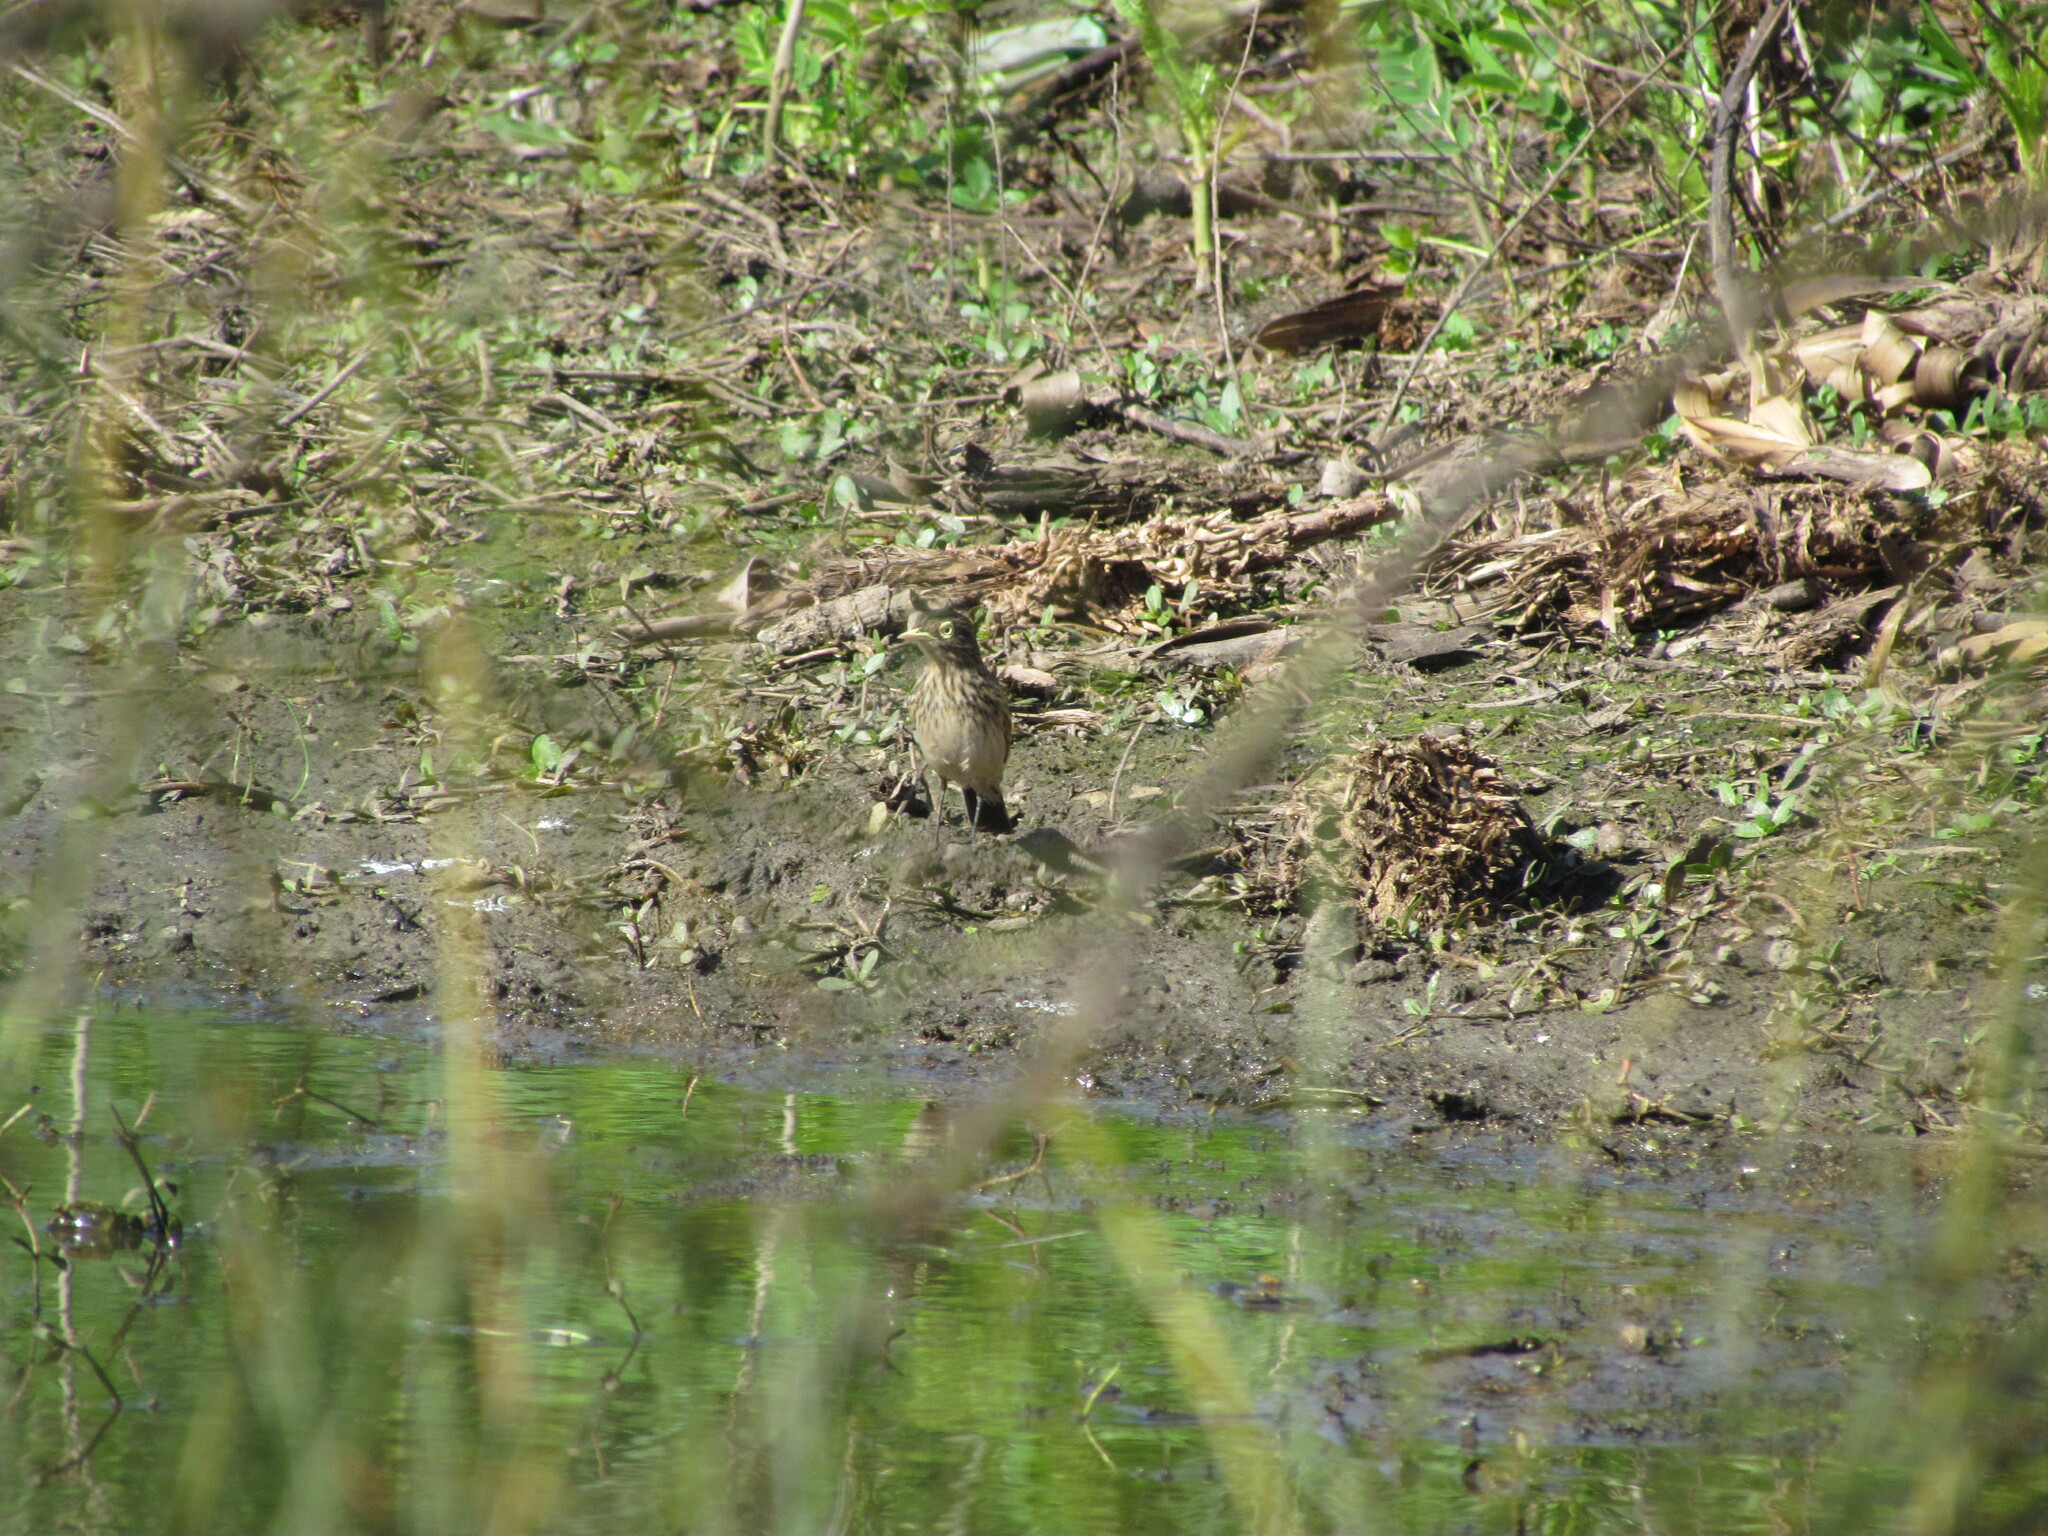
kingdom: Animalia
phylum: Chordata
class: Aves
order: Passeriformes
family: Tyrannidae
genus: Hymenops
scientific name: Hymenops perspicillatus
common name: Spectacled tyrant
